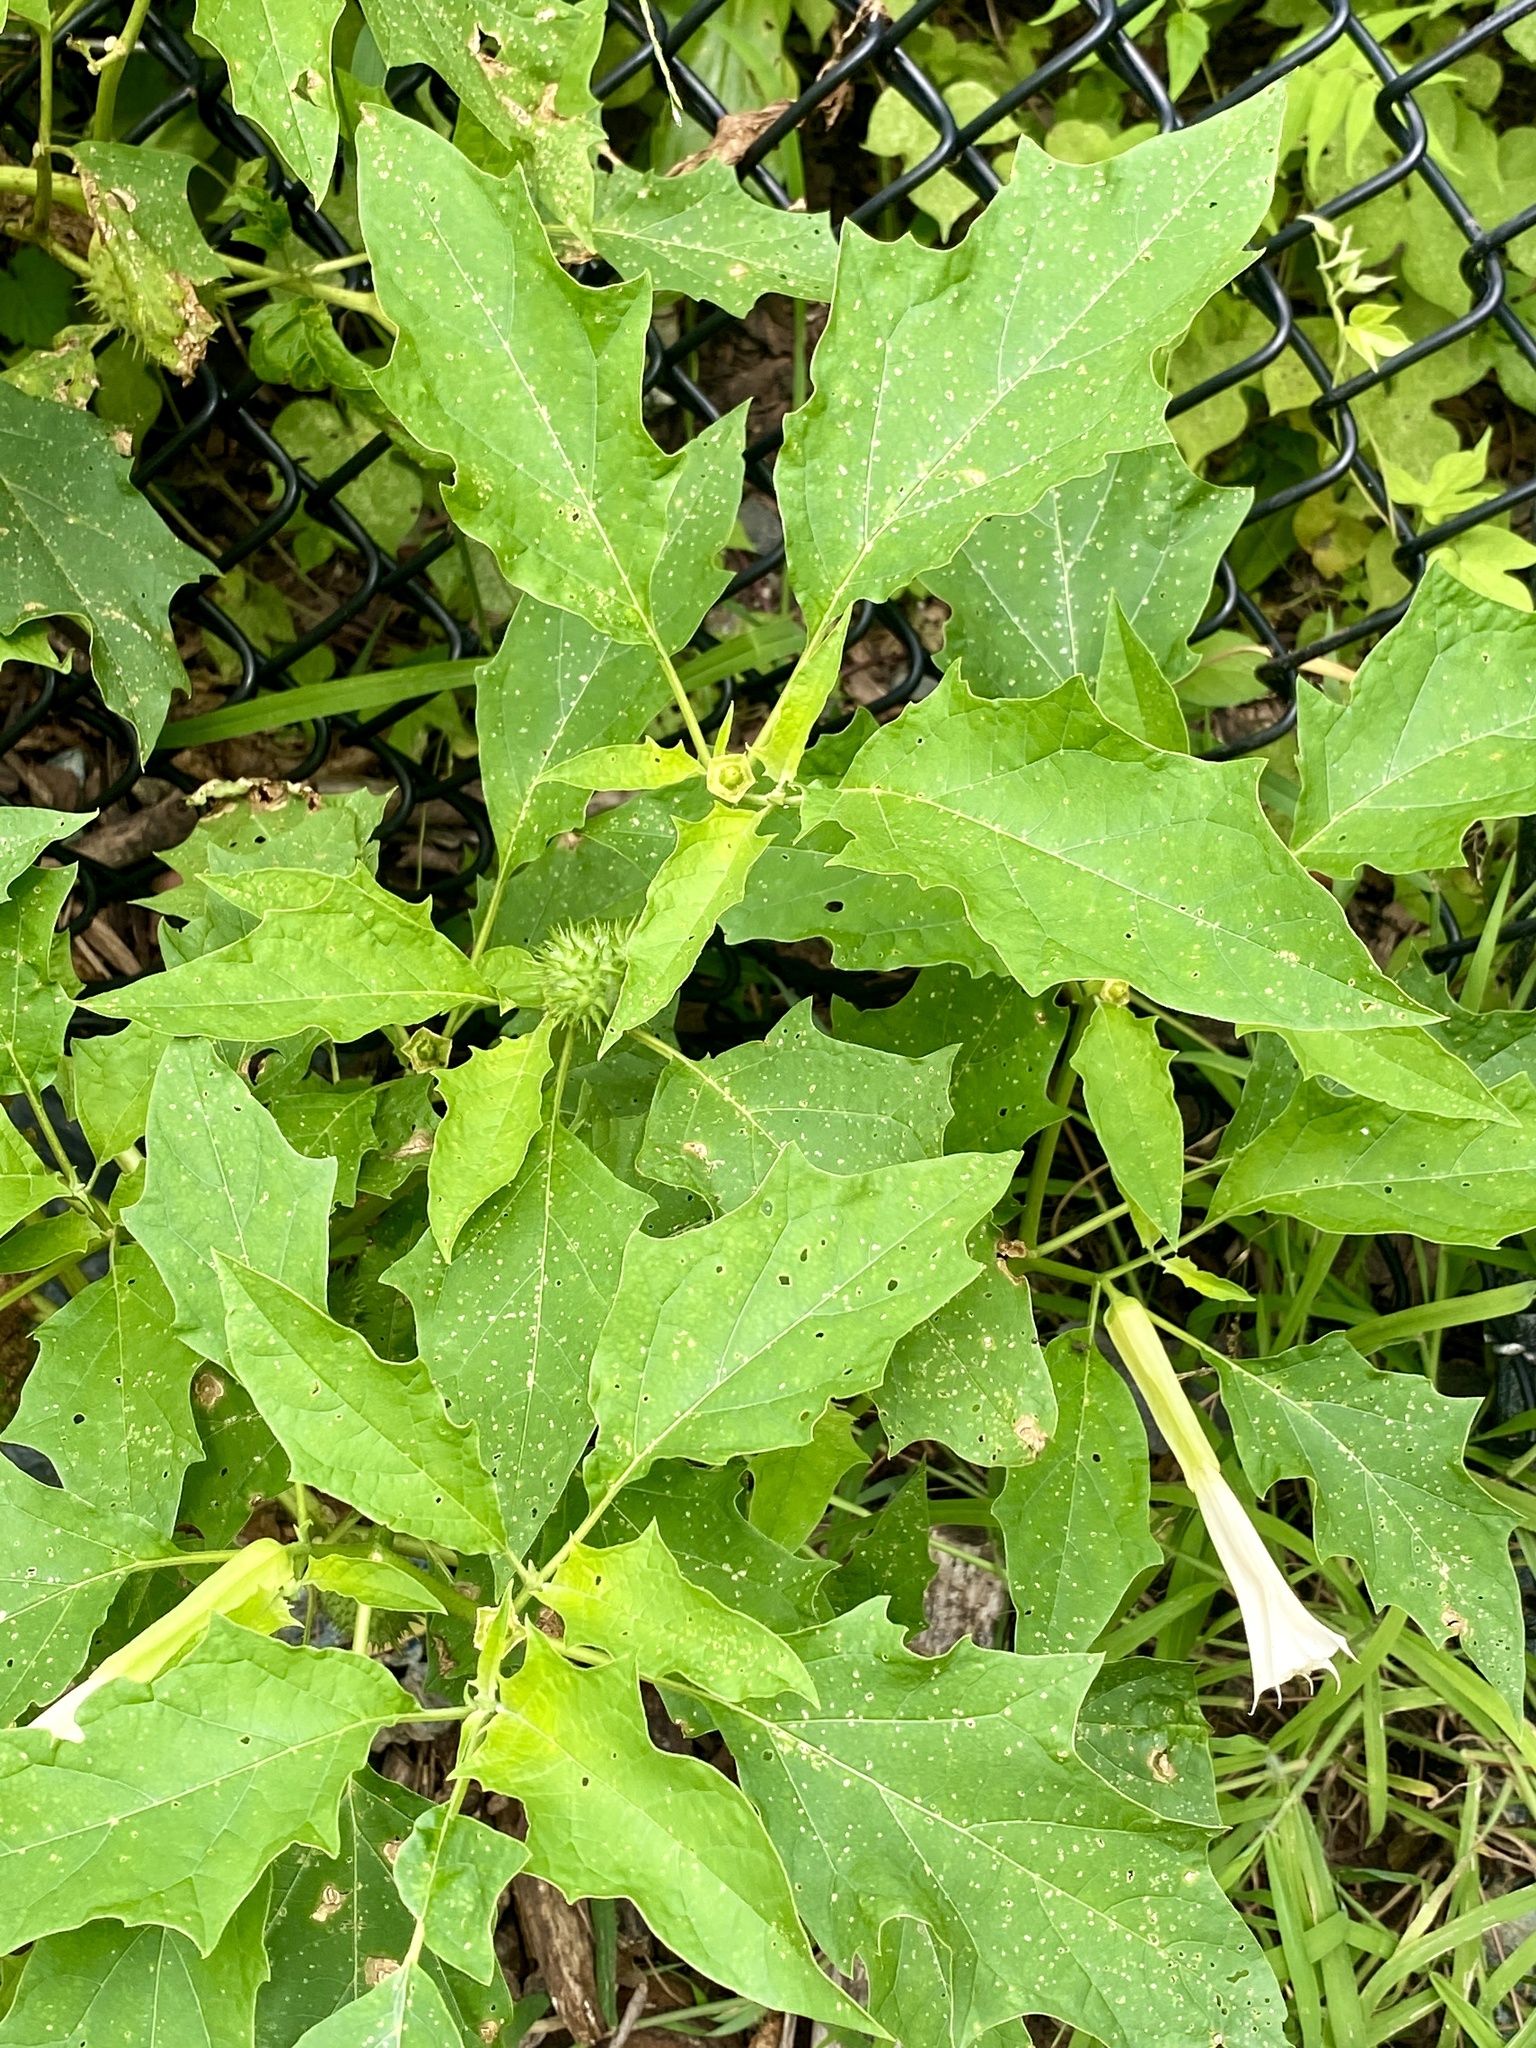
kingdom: Plantae
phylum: Tracheophyta
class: Magnoliopsida
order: Solanales
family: Solanaceae
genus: Datura
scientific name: Datura stramonium
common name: Thorn-apple
